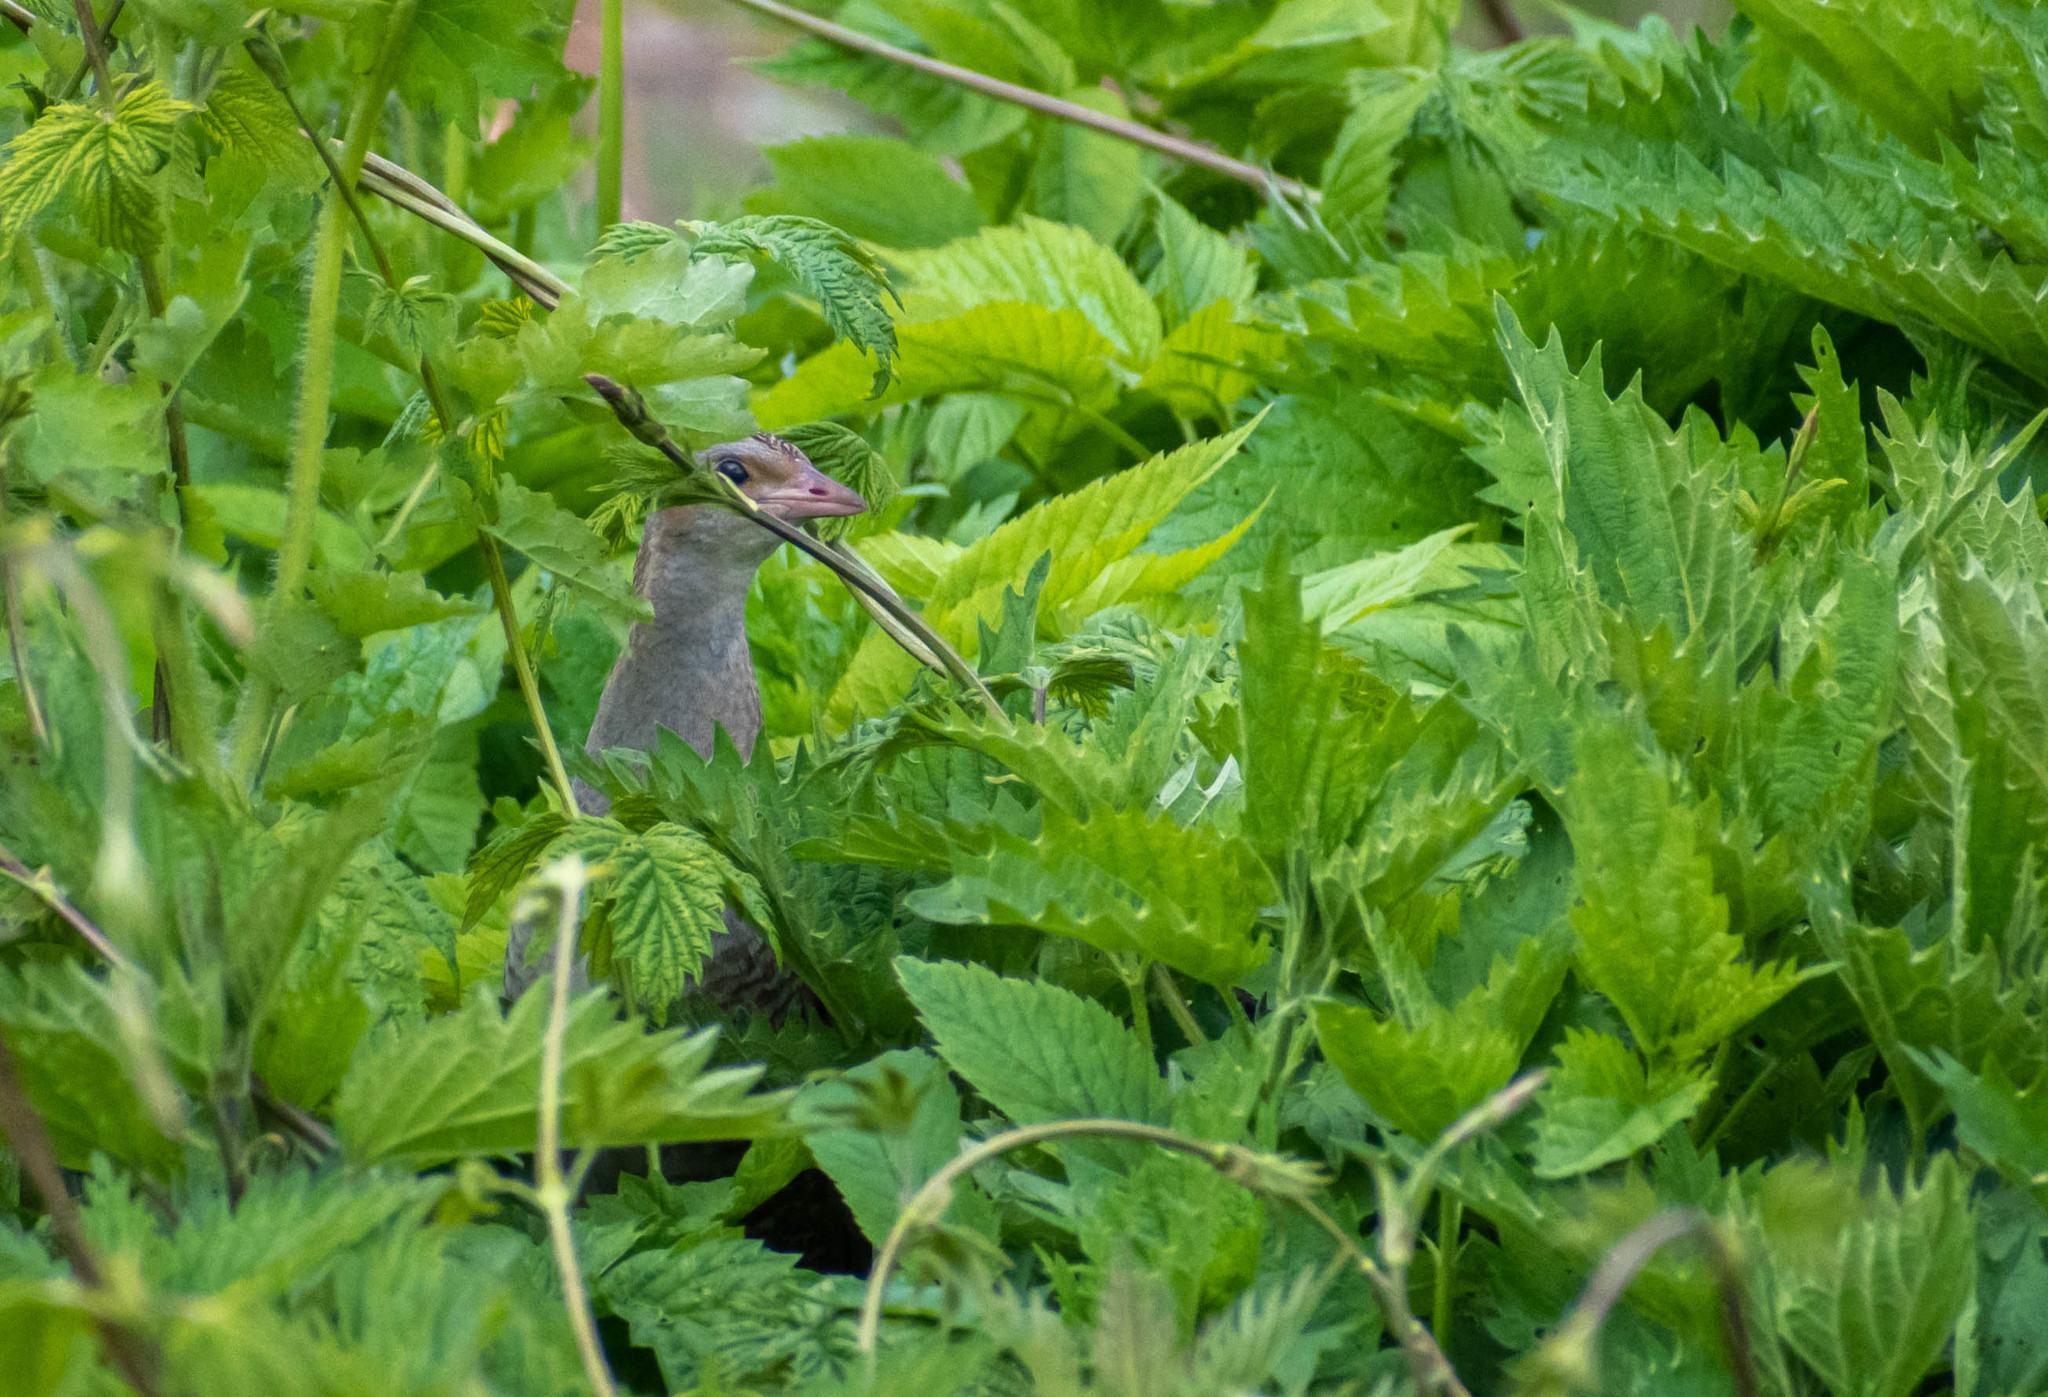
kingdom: Animalia
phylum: Chordata
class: Aves
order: Gruiformes
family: Rallidae
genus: Crex
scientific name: Crex crex
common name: Corn crake
